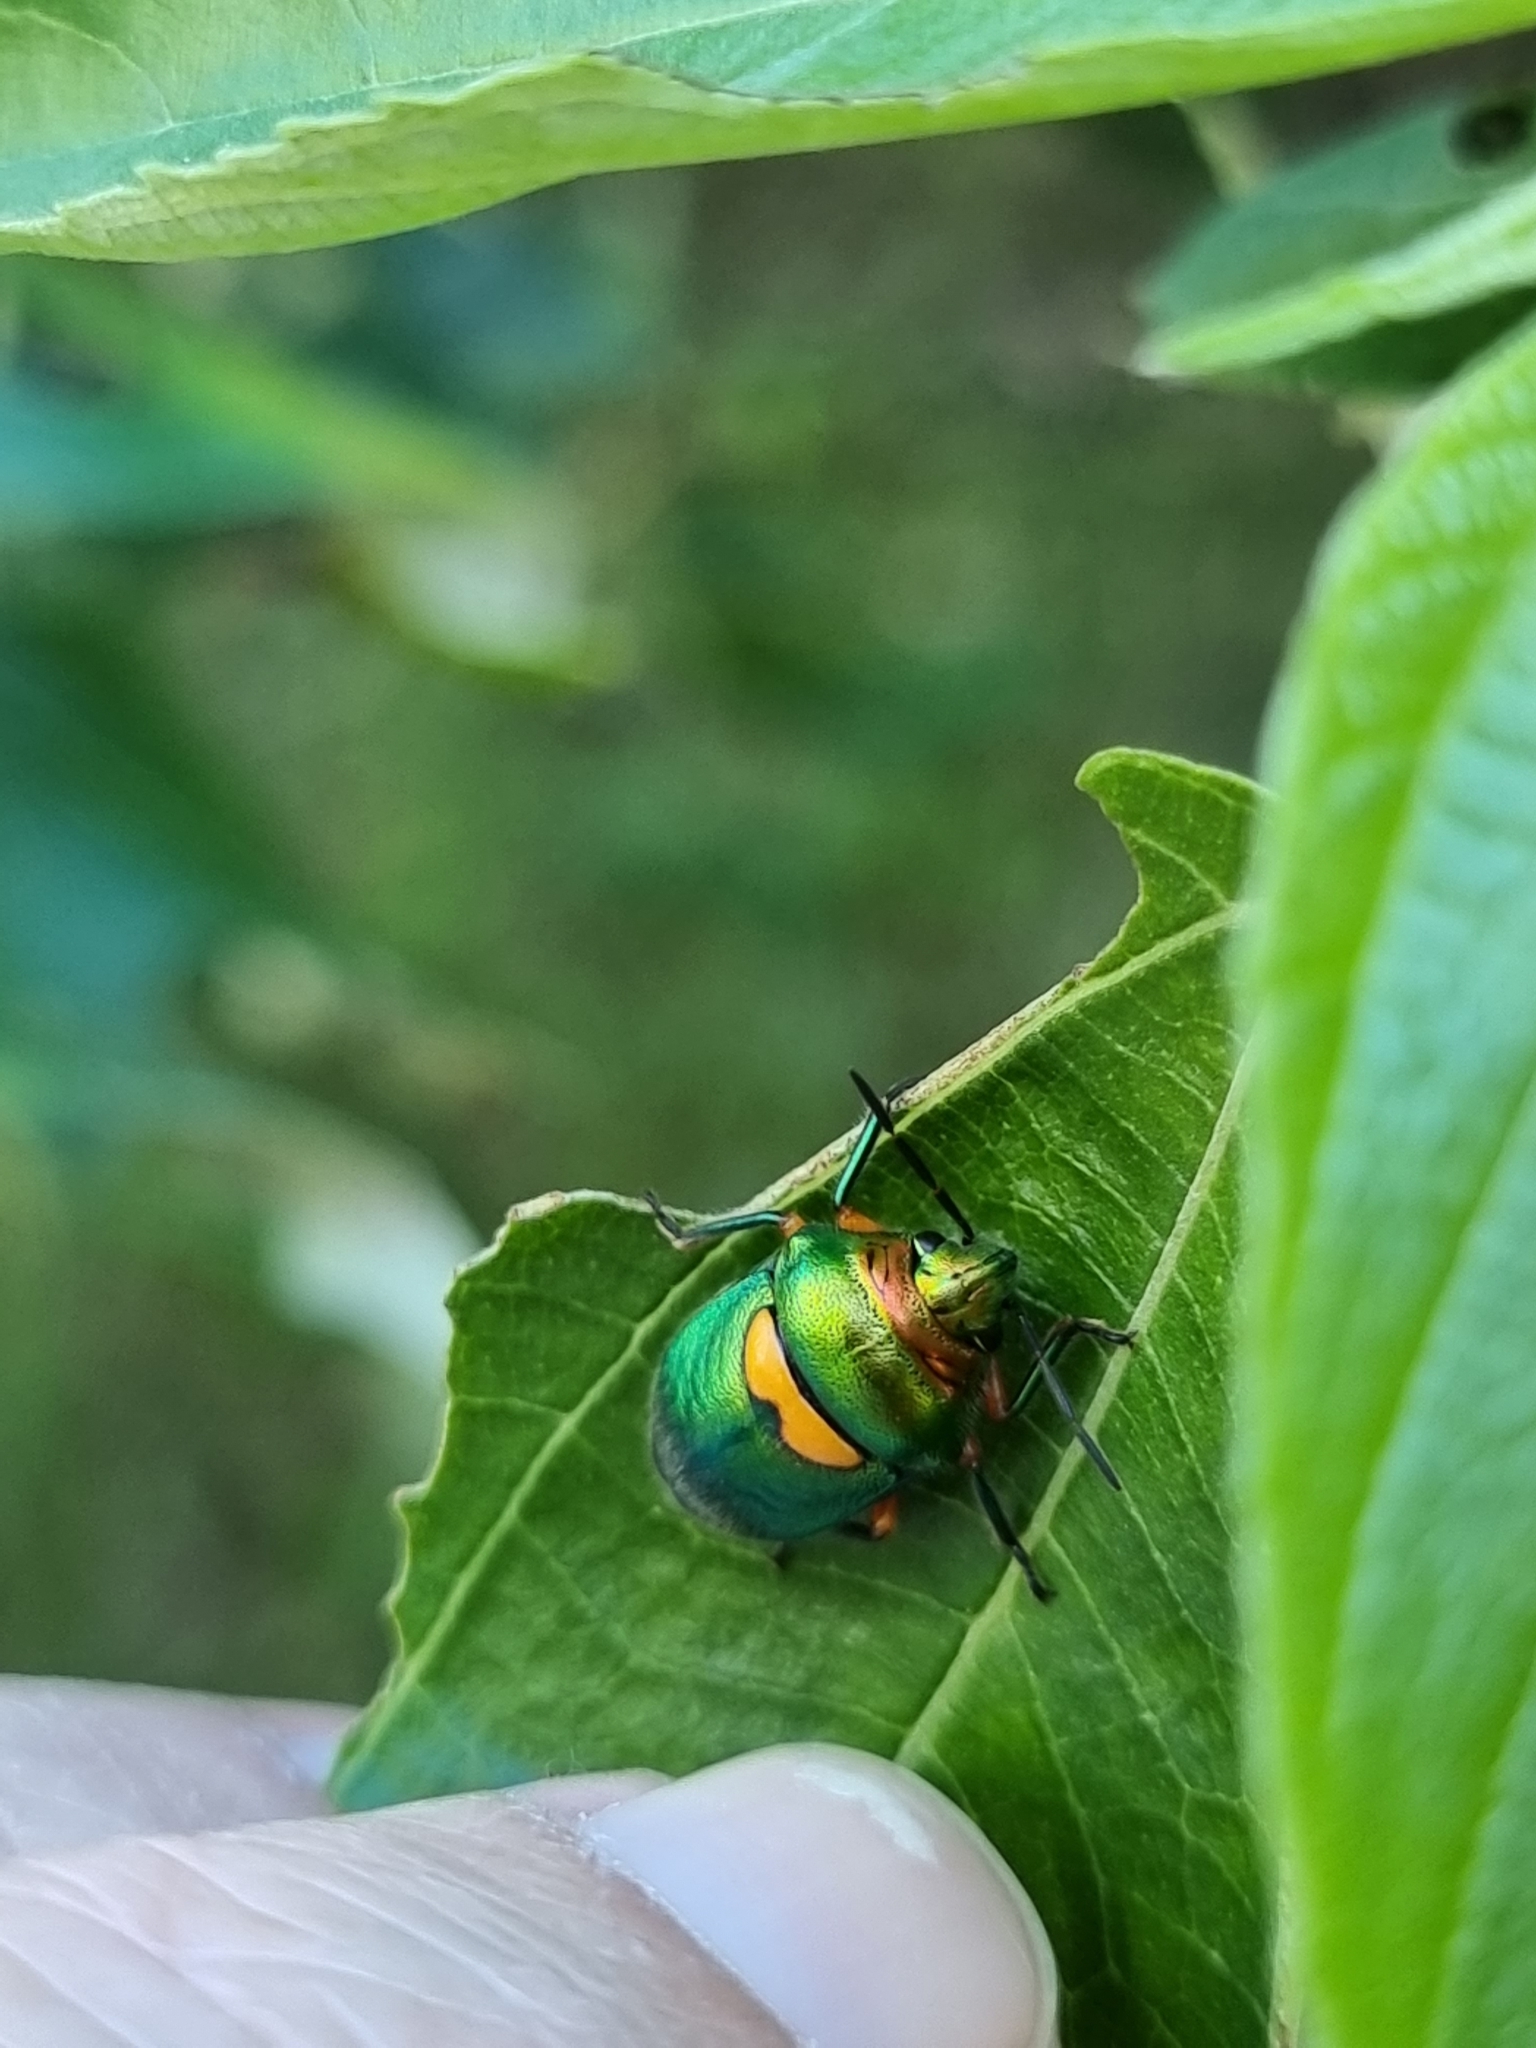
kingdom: Animalia
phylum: Arthropoda
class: Insecta
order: Hemiptera
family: Scutelleridae
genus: Lampromicra
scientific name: Lampromicra senator
